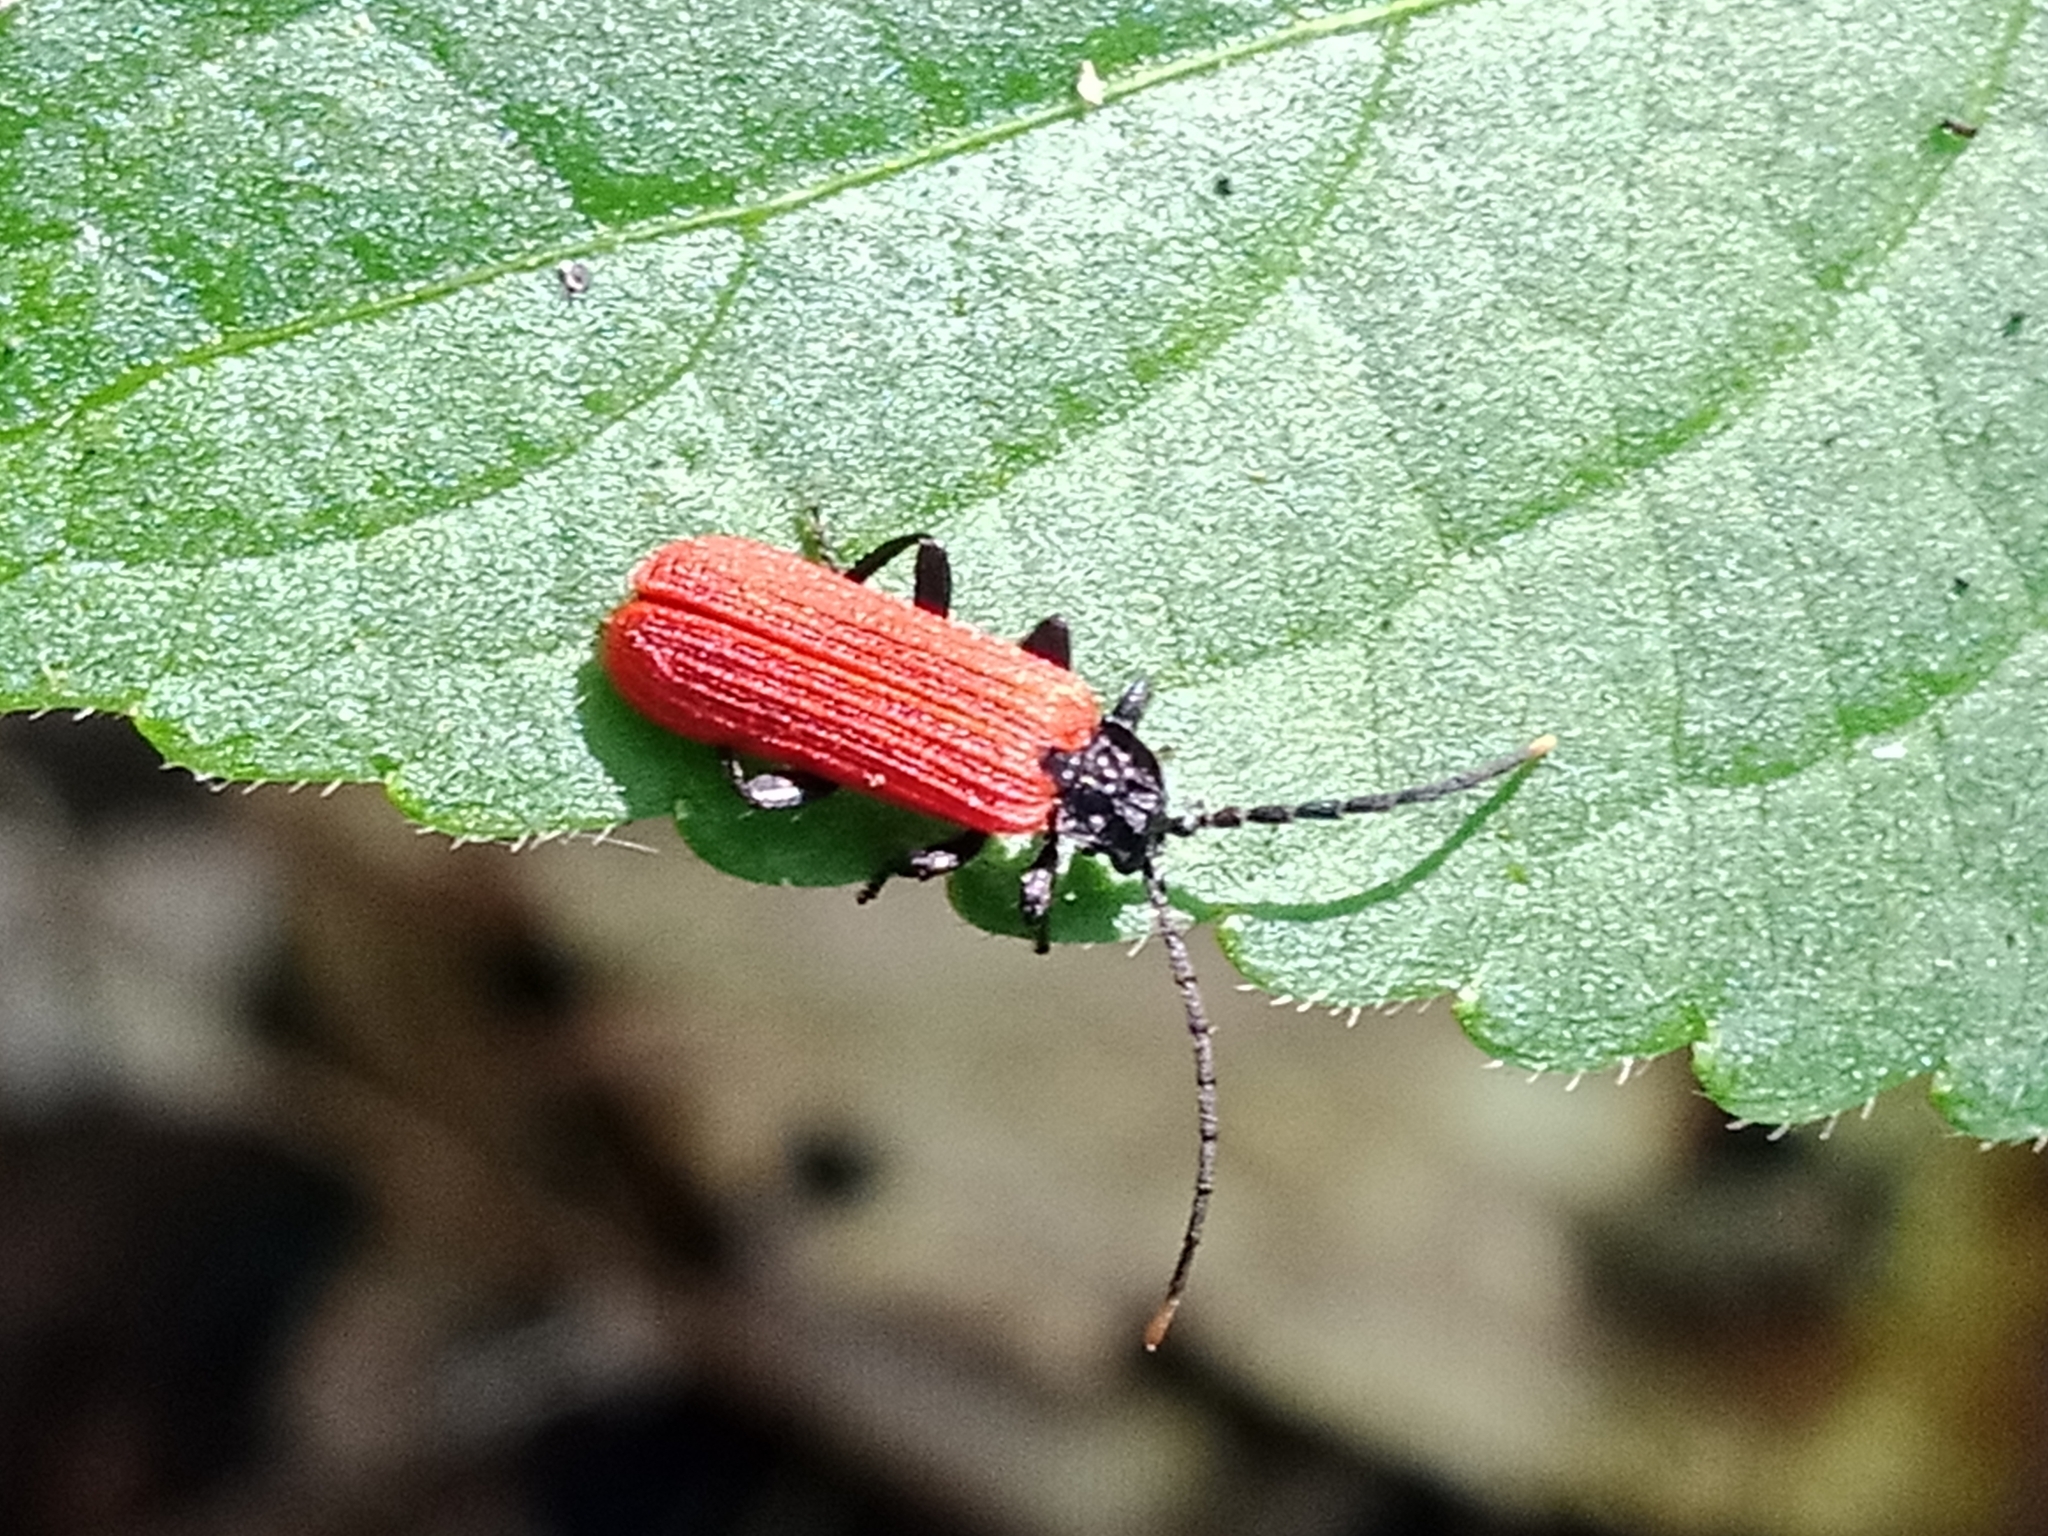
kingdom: Animalia
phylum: Arthropoda
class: Insecta
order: Coleoptera
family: Lycidae
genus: Platycis
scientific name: Platycis minutus
